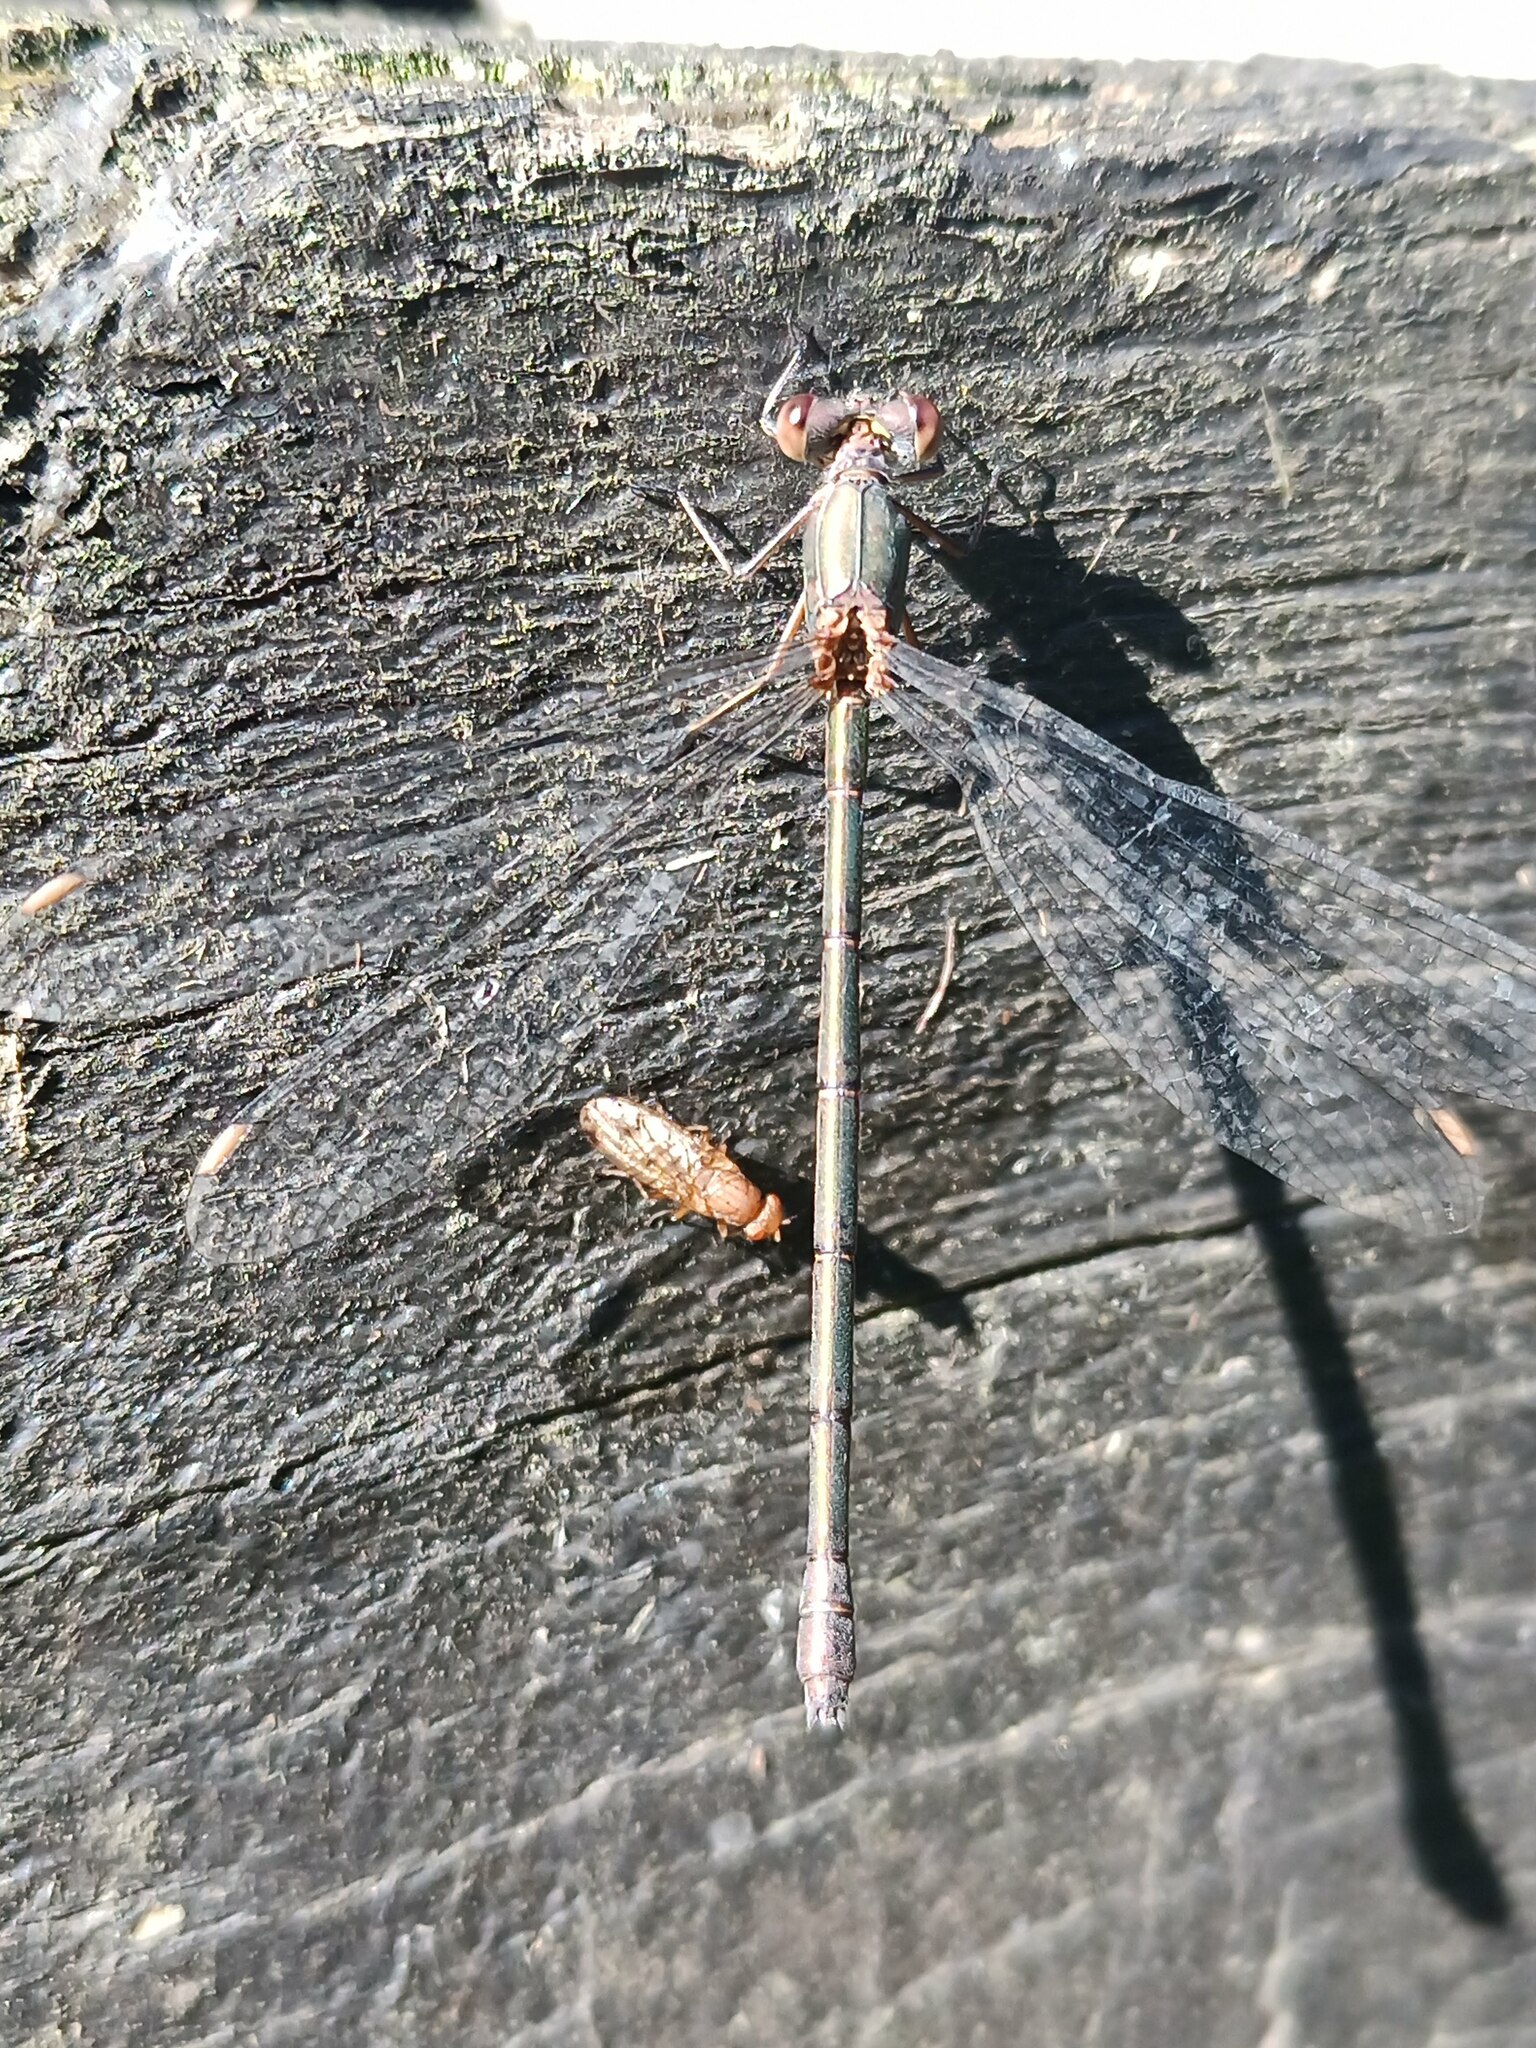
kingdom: Animalia
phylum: Arthropoda
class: Insecta
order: Odonata
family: Lestidae
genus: Chalcolestes
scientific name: Chalcolestes viridis
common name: Green emerald damselfly
